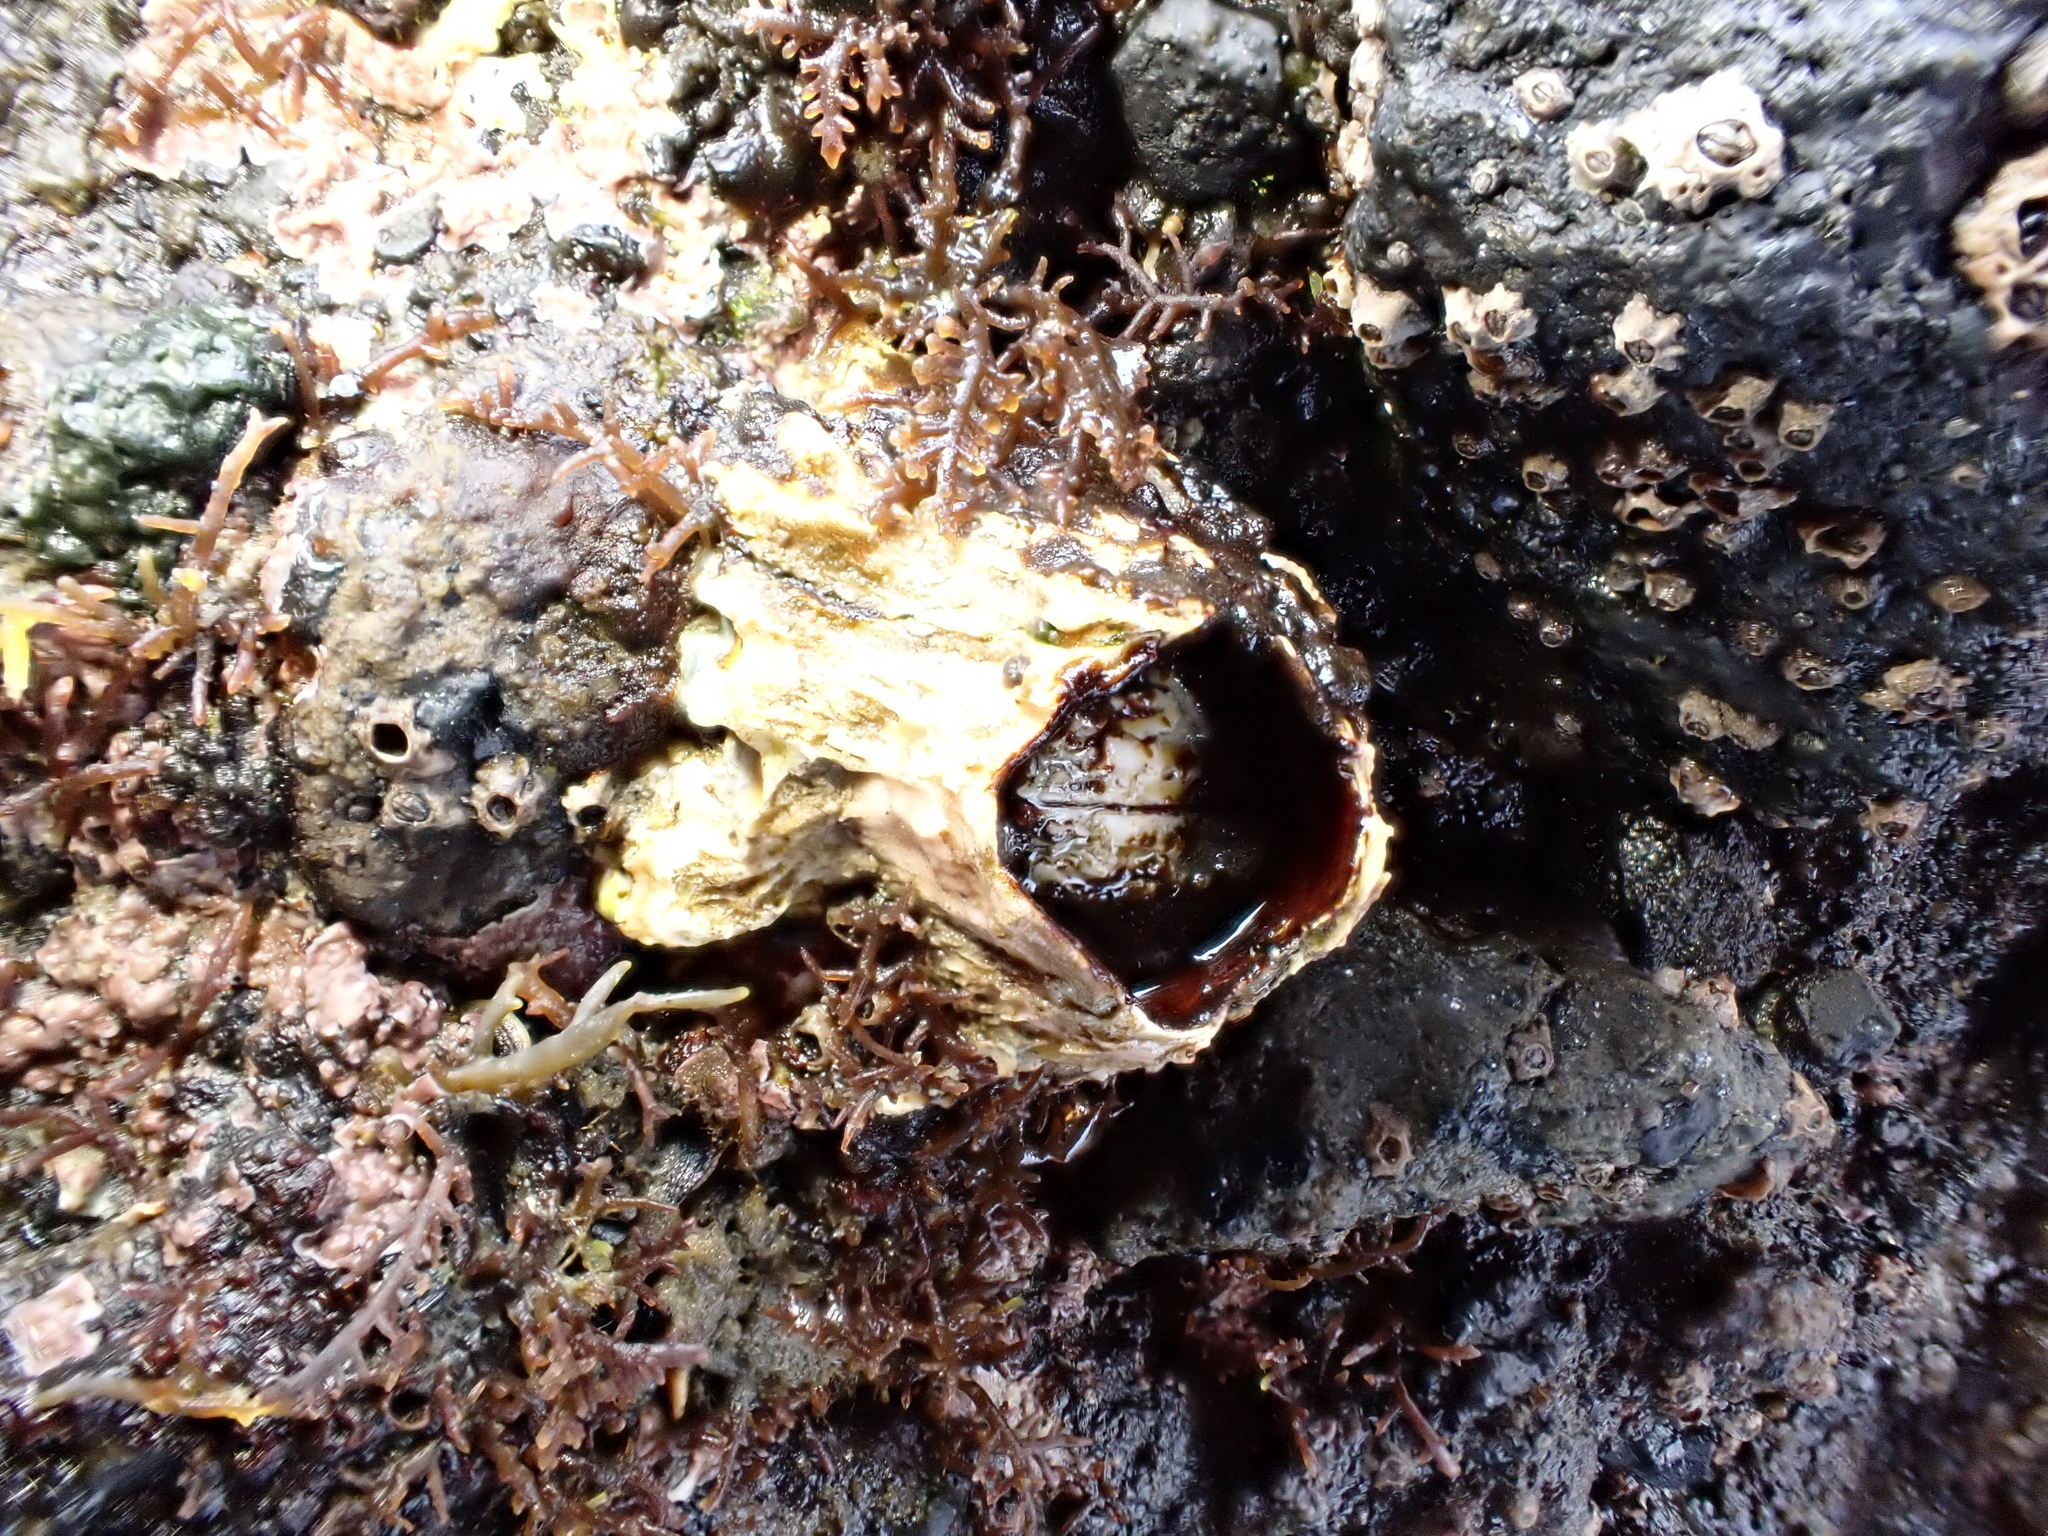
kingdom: Animalia
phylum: Arthropoda
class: Maxillopoda
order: Sessilia
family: Tetraclitidae
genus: Epopella
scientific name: Epopella plicata
